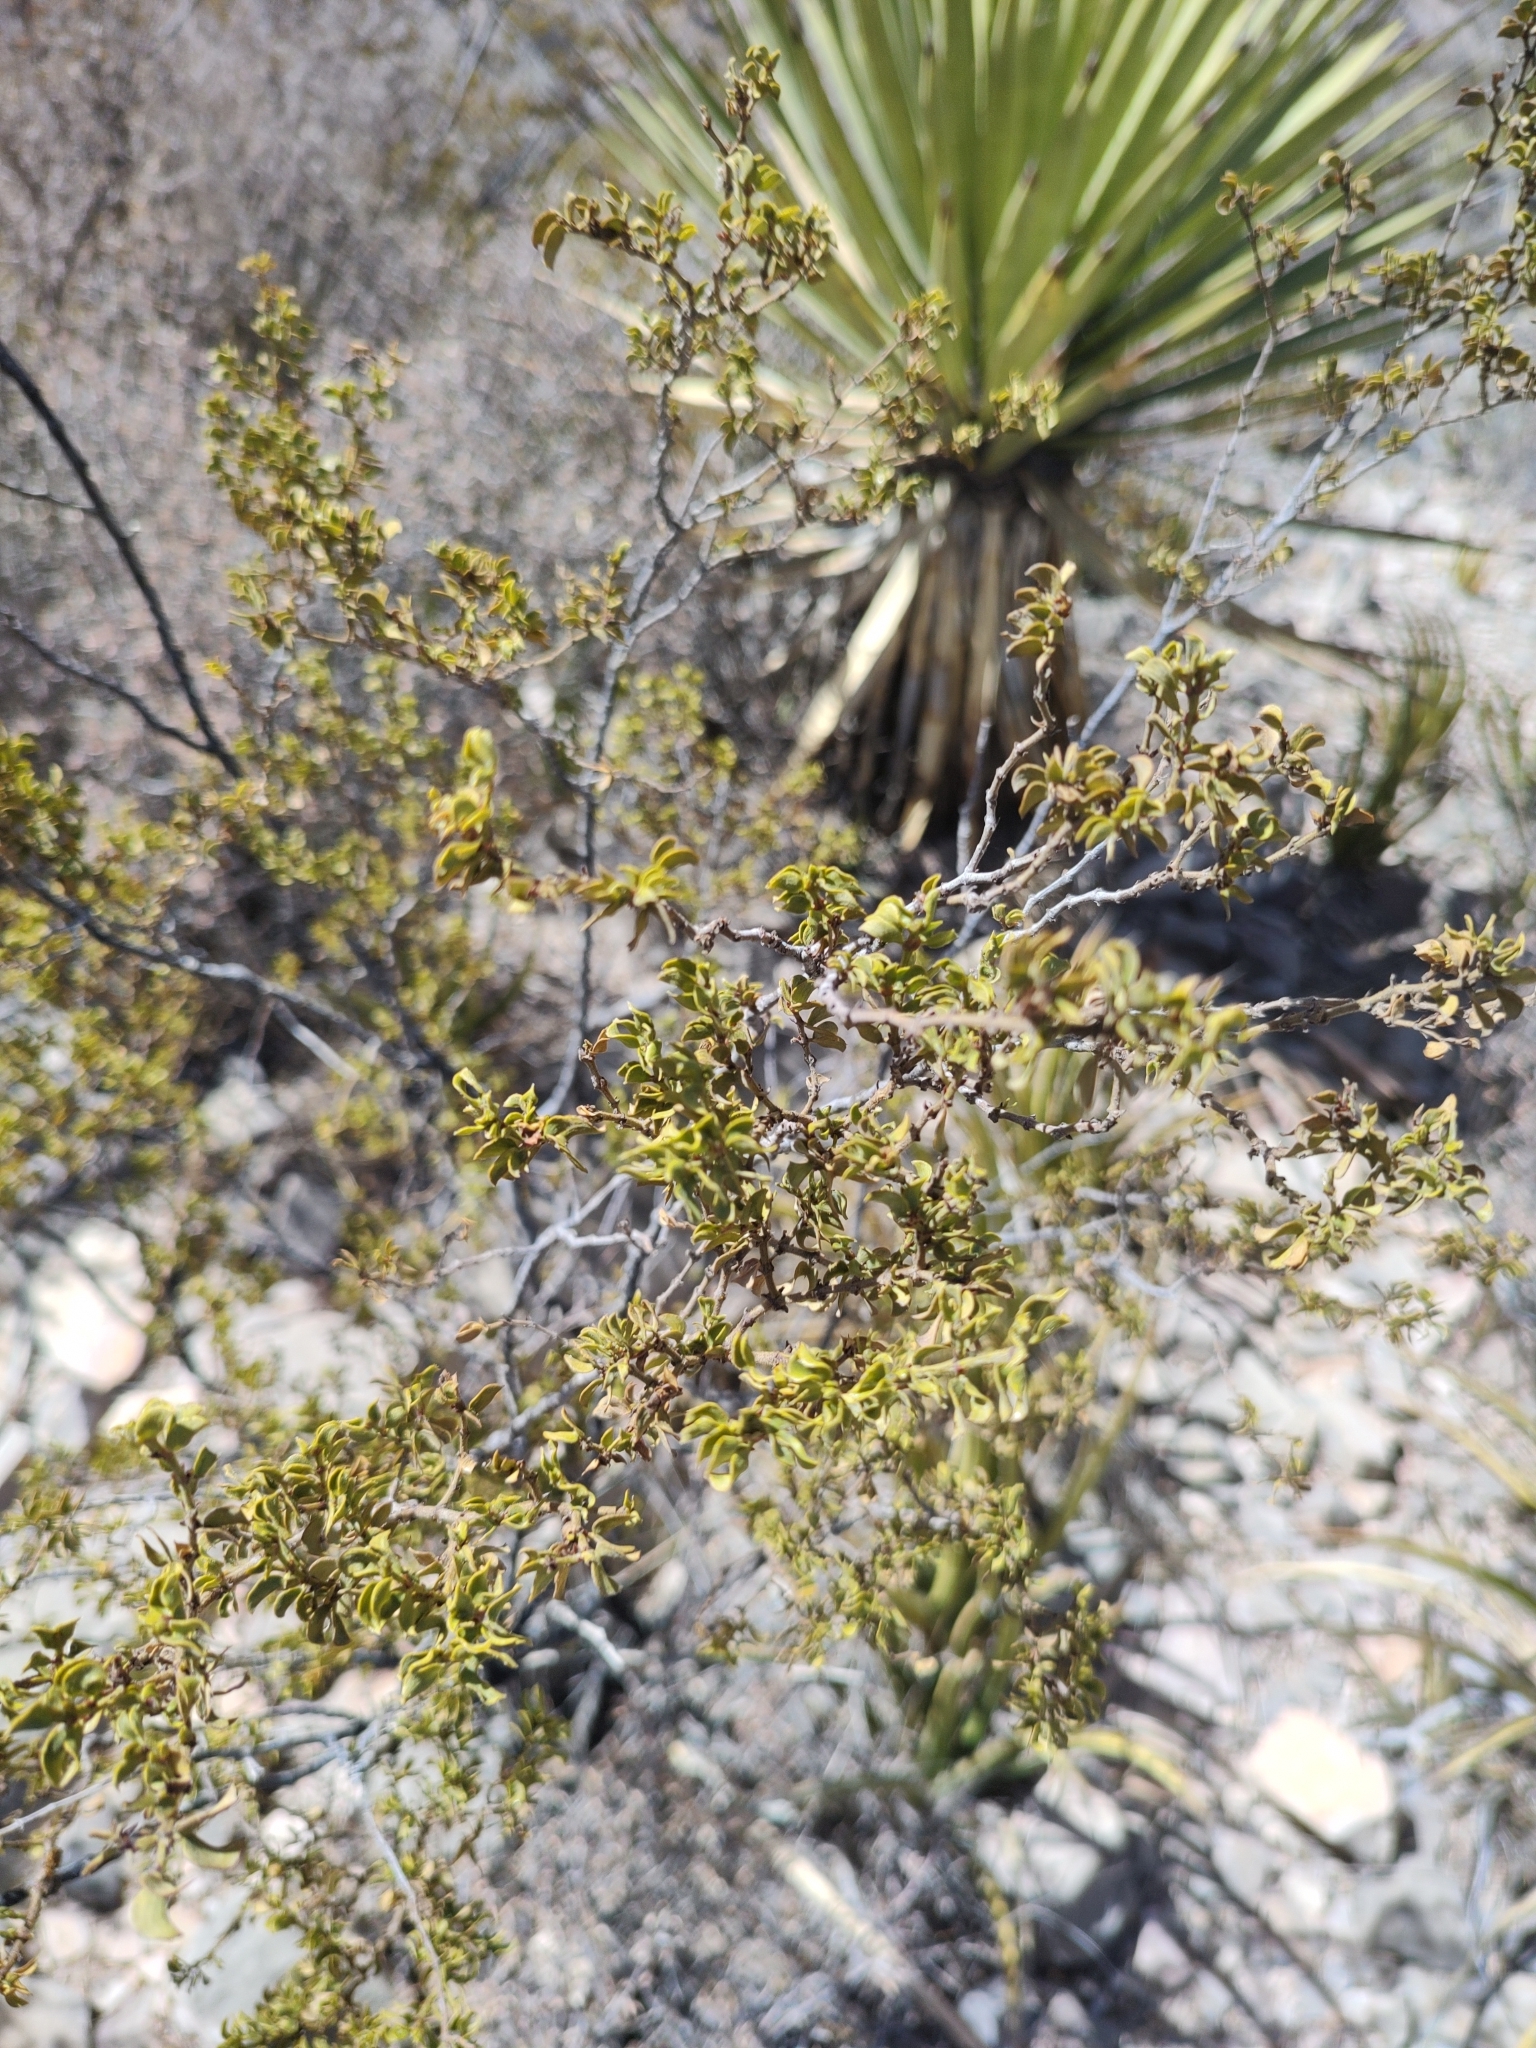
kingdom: Plantae
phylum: Tracheophyta
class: Magnoliopsida
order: Zygophyllales
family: Zygophyllaceae
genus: Larrea
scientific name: Larrea tridentata
